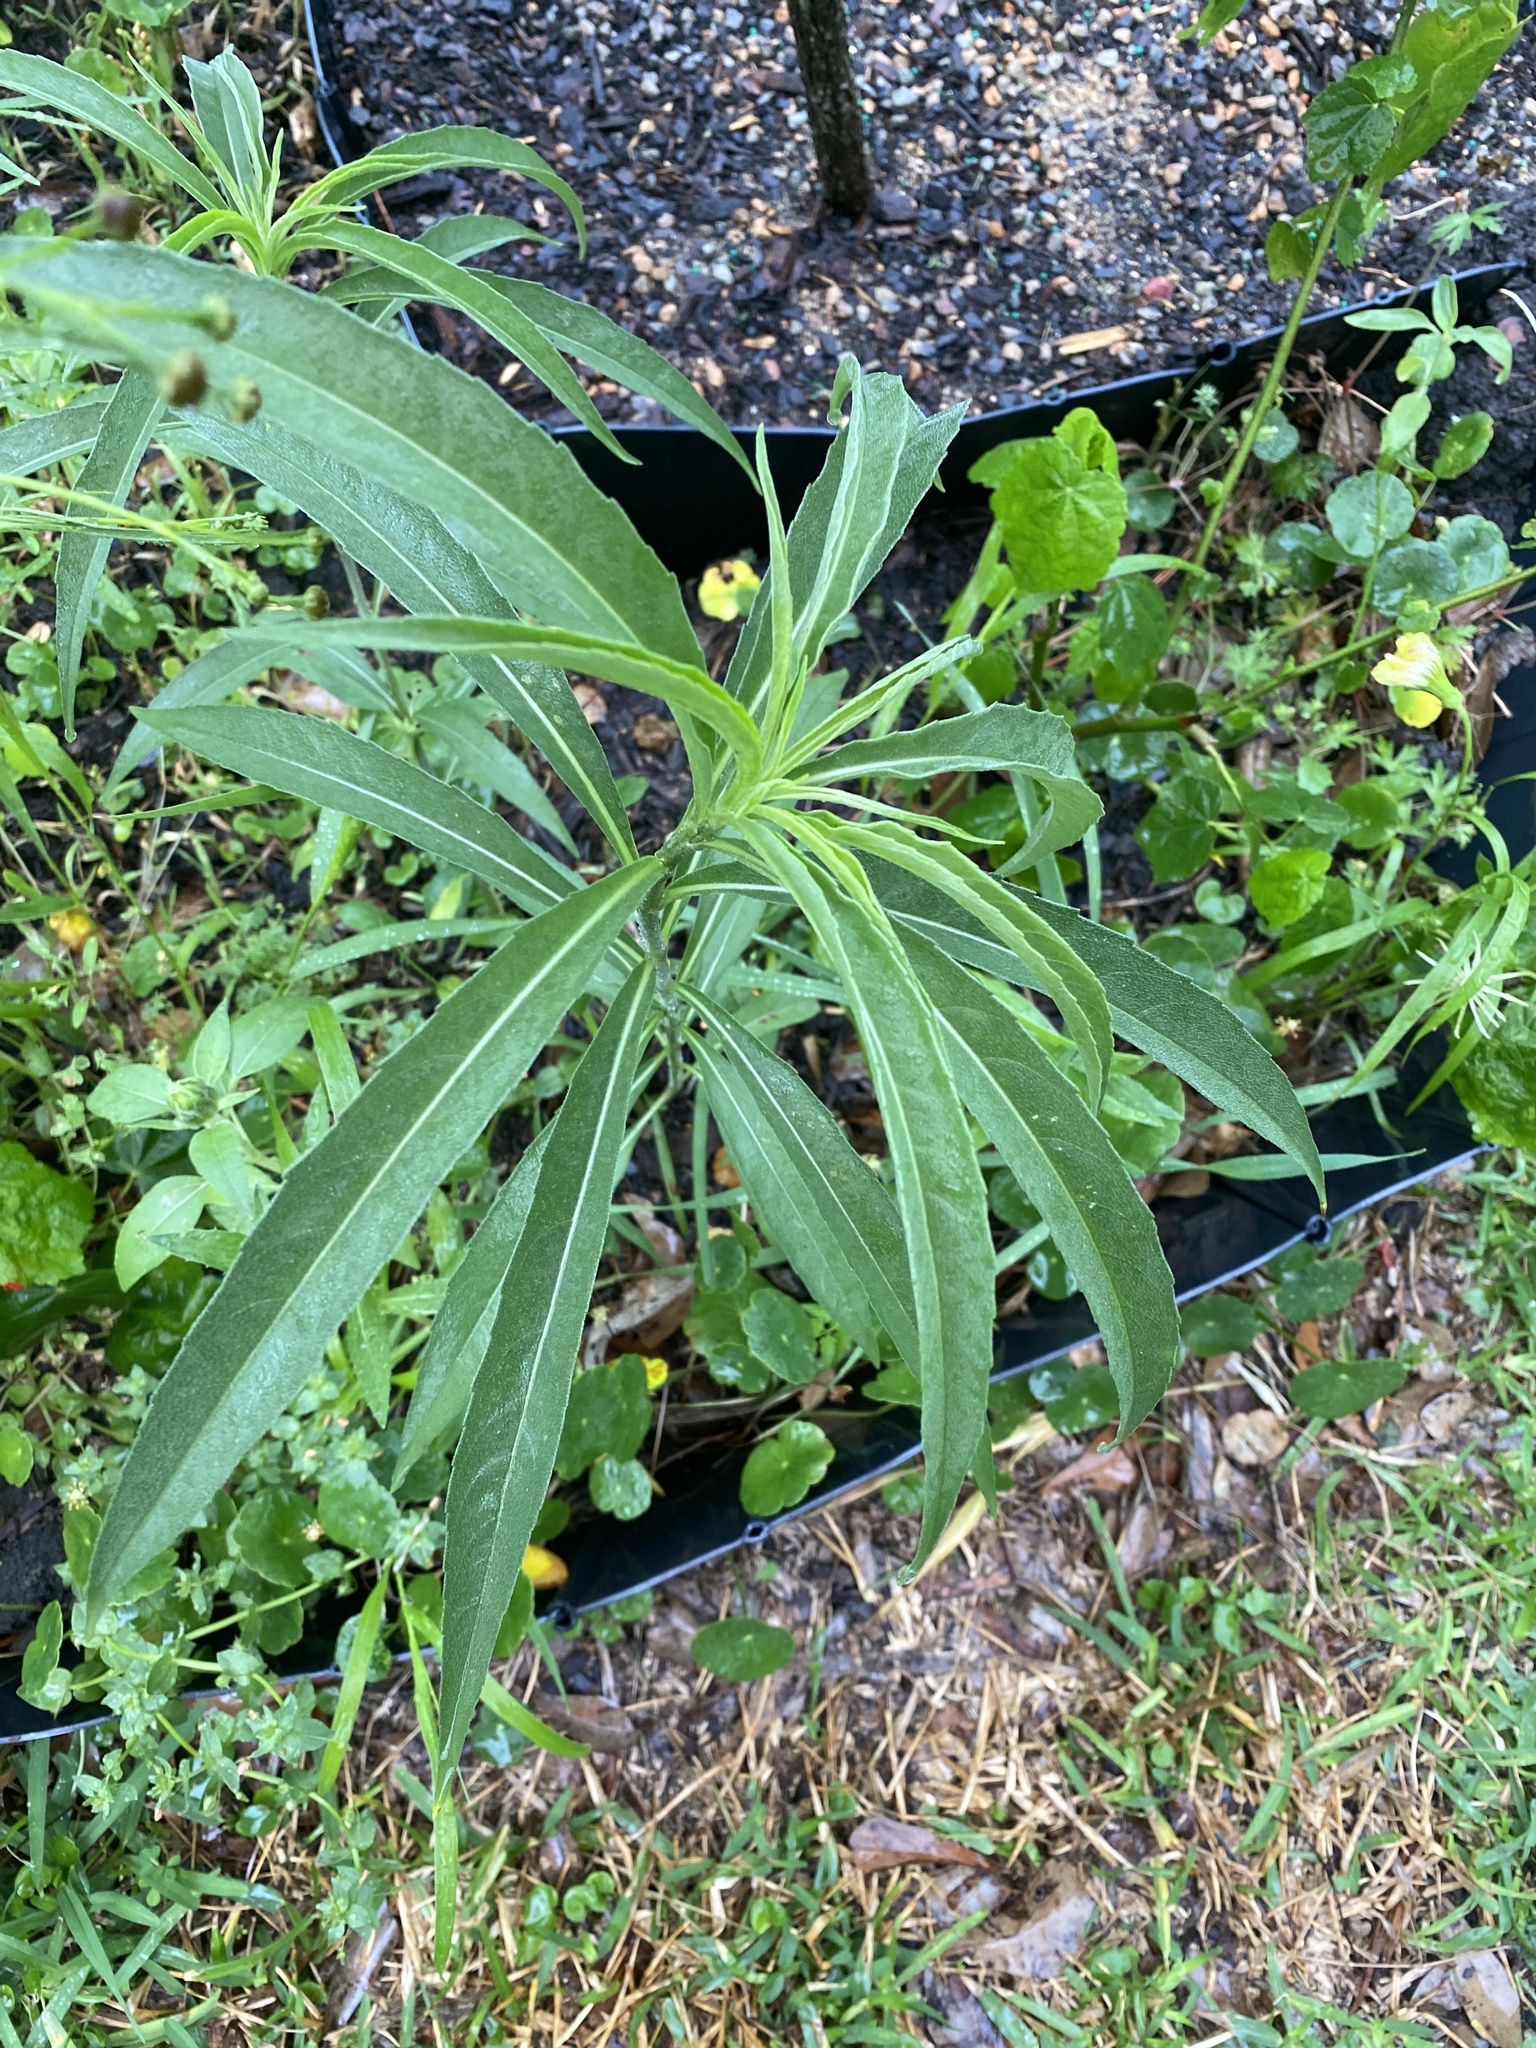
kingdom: Plantae
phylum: Tracheophyta
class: Magnoliopsida
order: Asterales
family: Asteraceae
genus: Helianthus
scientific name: Helianthus maximiliani
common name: Maximilian's sunflower
